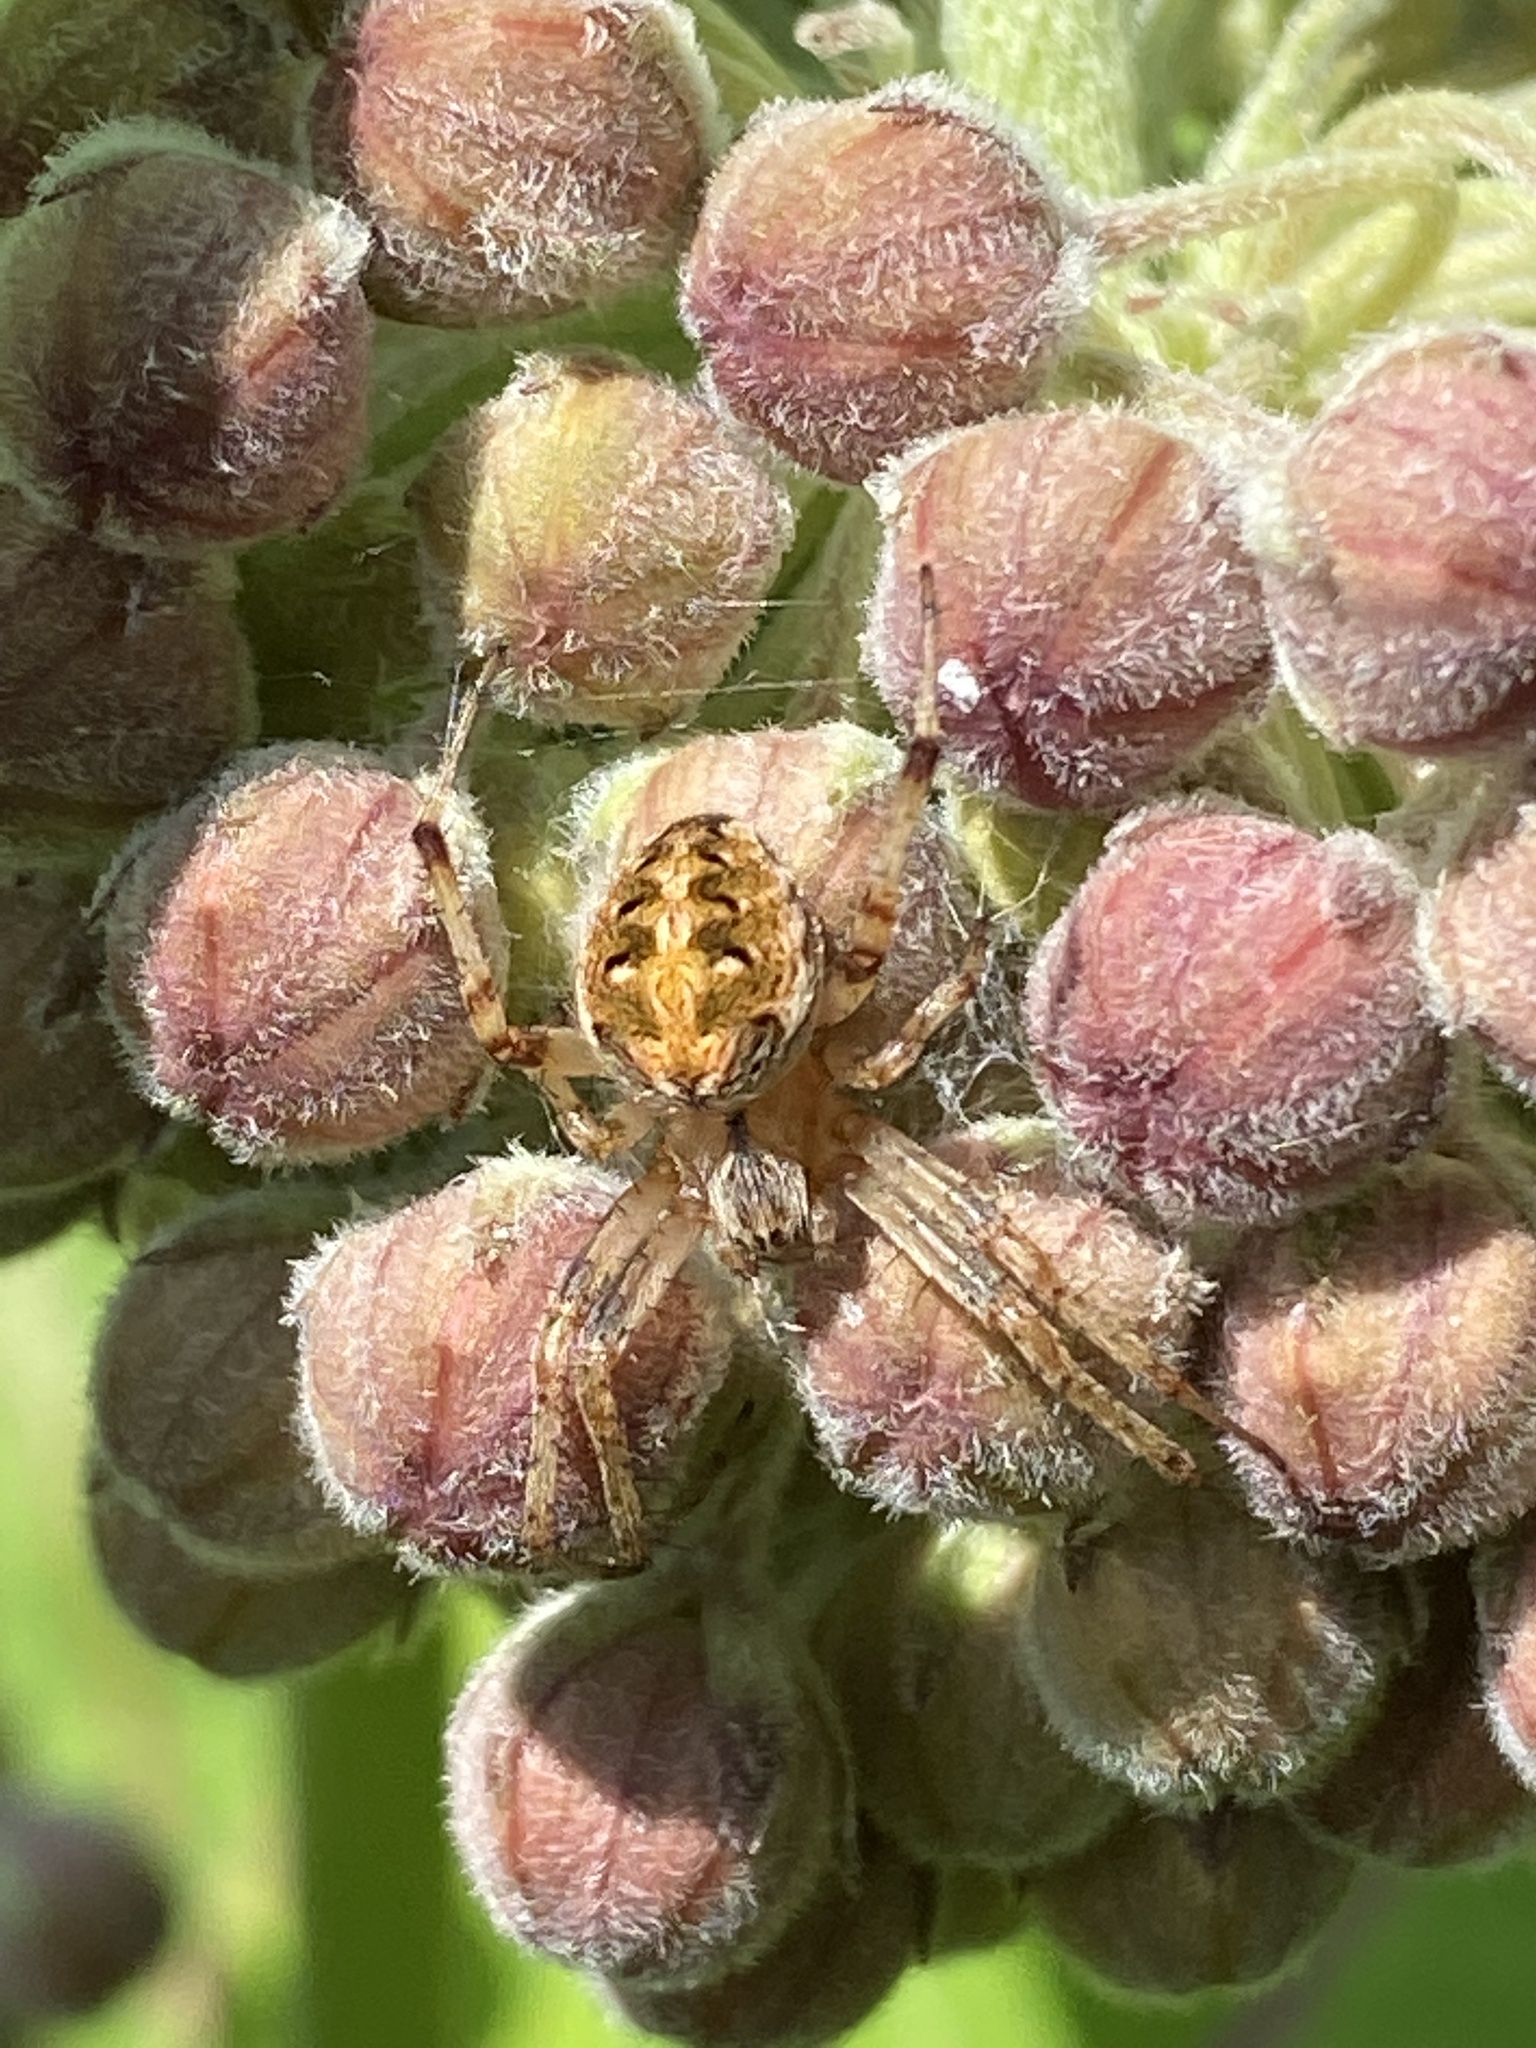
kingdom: Animalia
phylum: Arthropoda
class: Arachnida
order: Araneae
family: Araneidae
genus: Neoscona
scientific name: Neoscona arabesca
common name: Orb weavers
